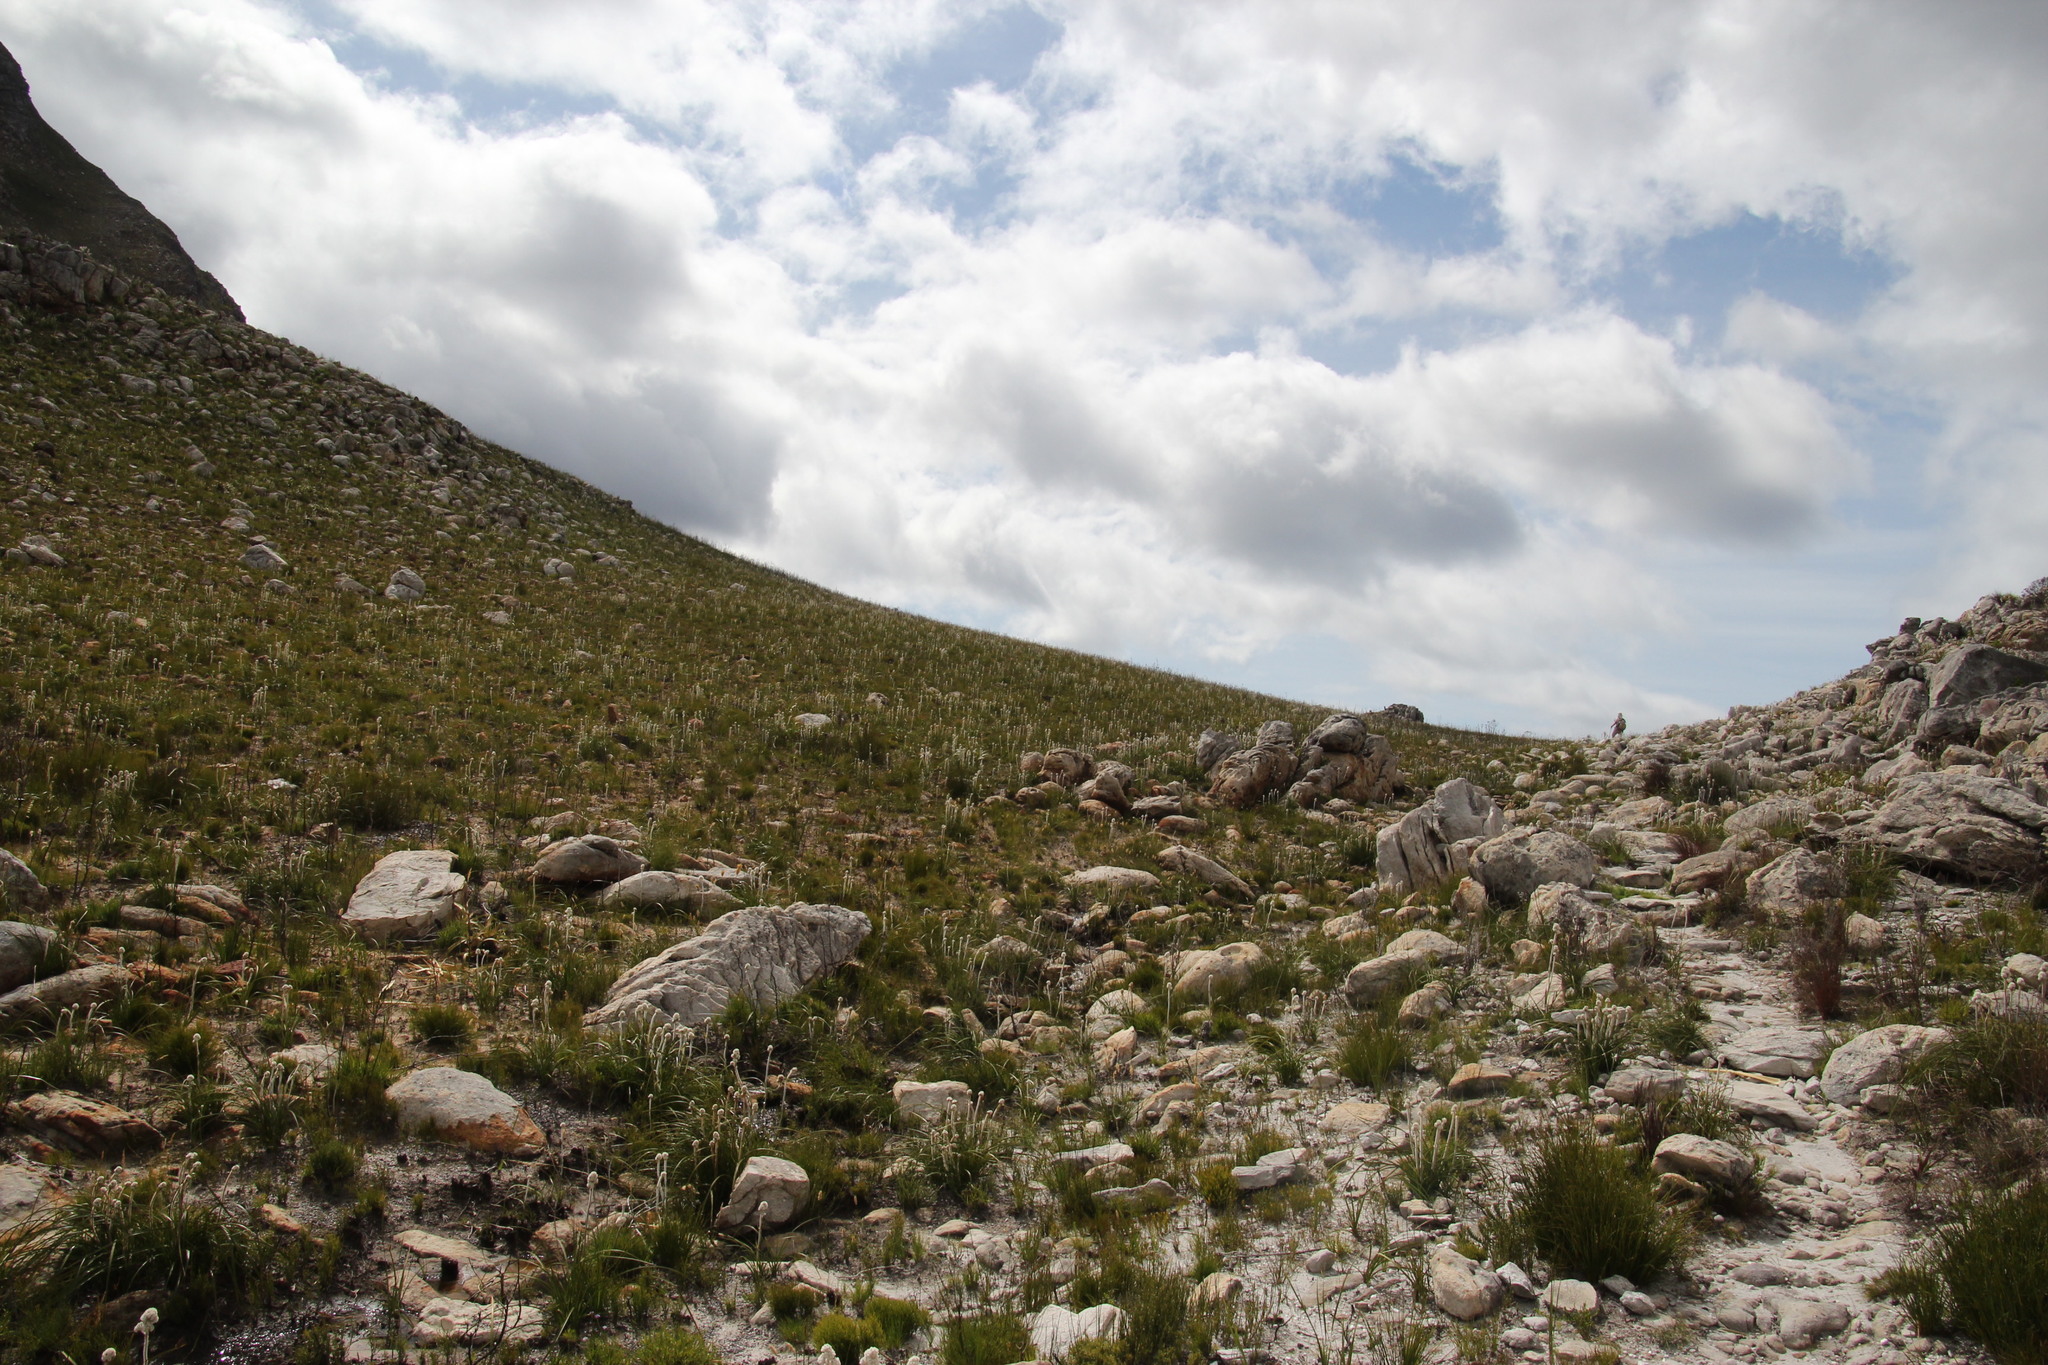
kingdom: Plantae
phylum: Tracheophyta
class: Liliopsida
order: Asparagales
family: Lanariaceae
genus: Lanaria
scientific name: Lanaria lanata
